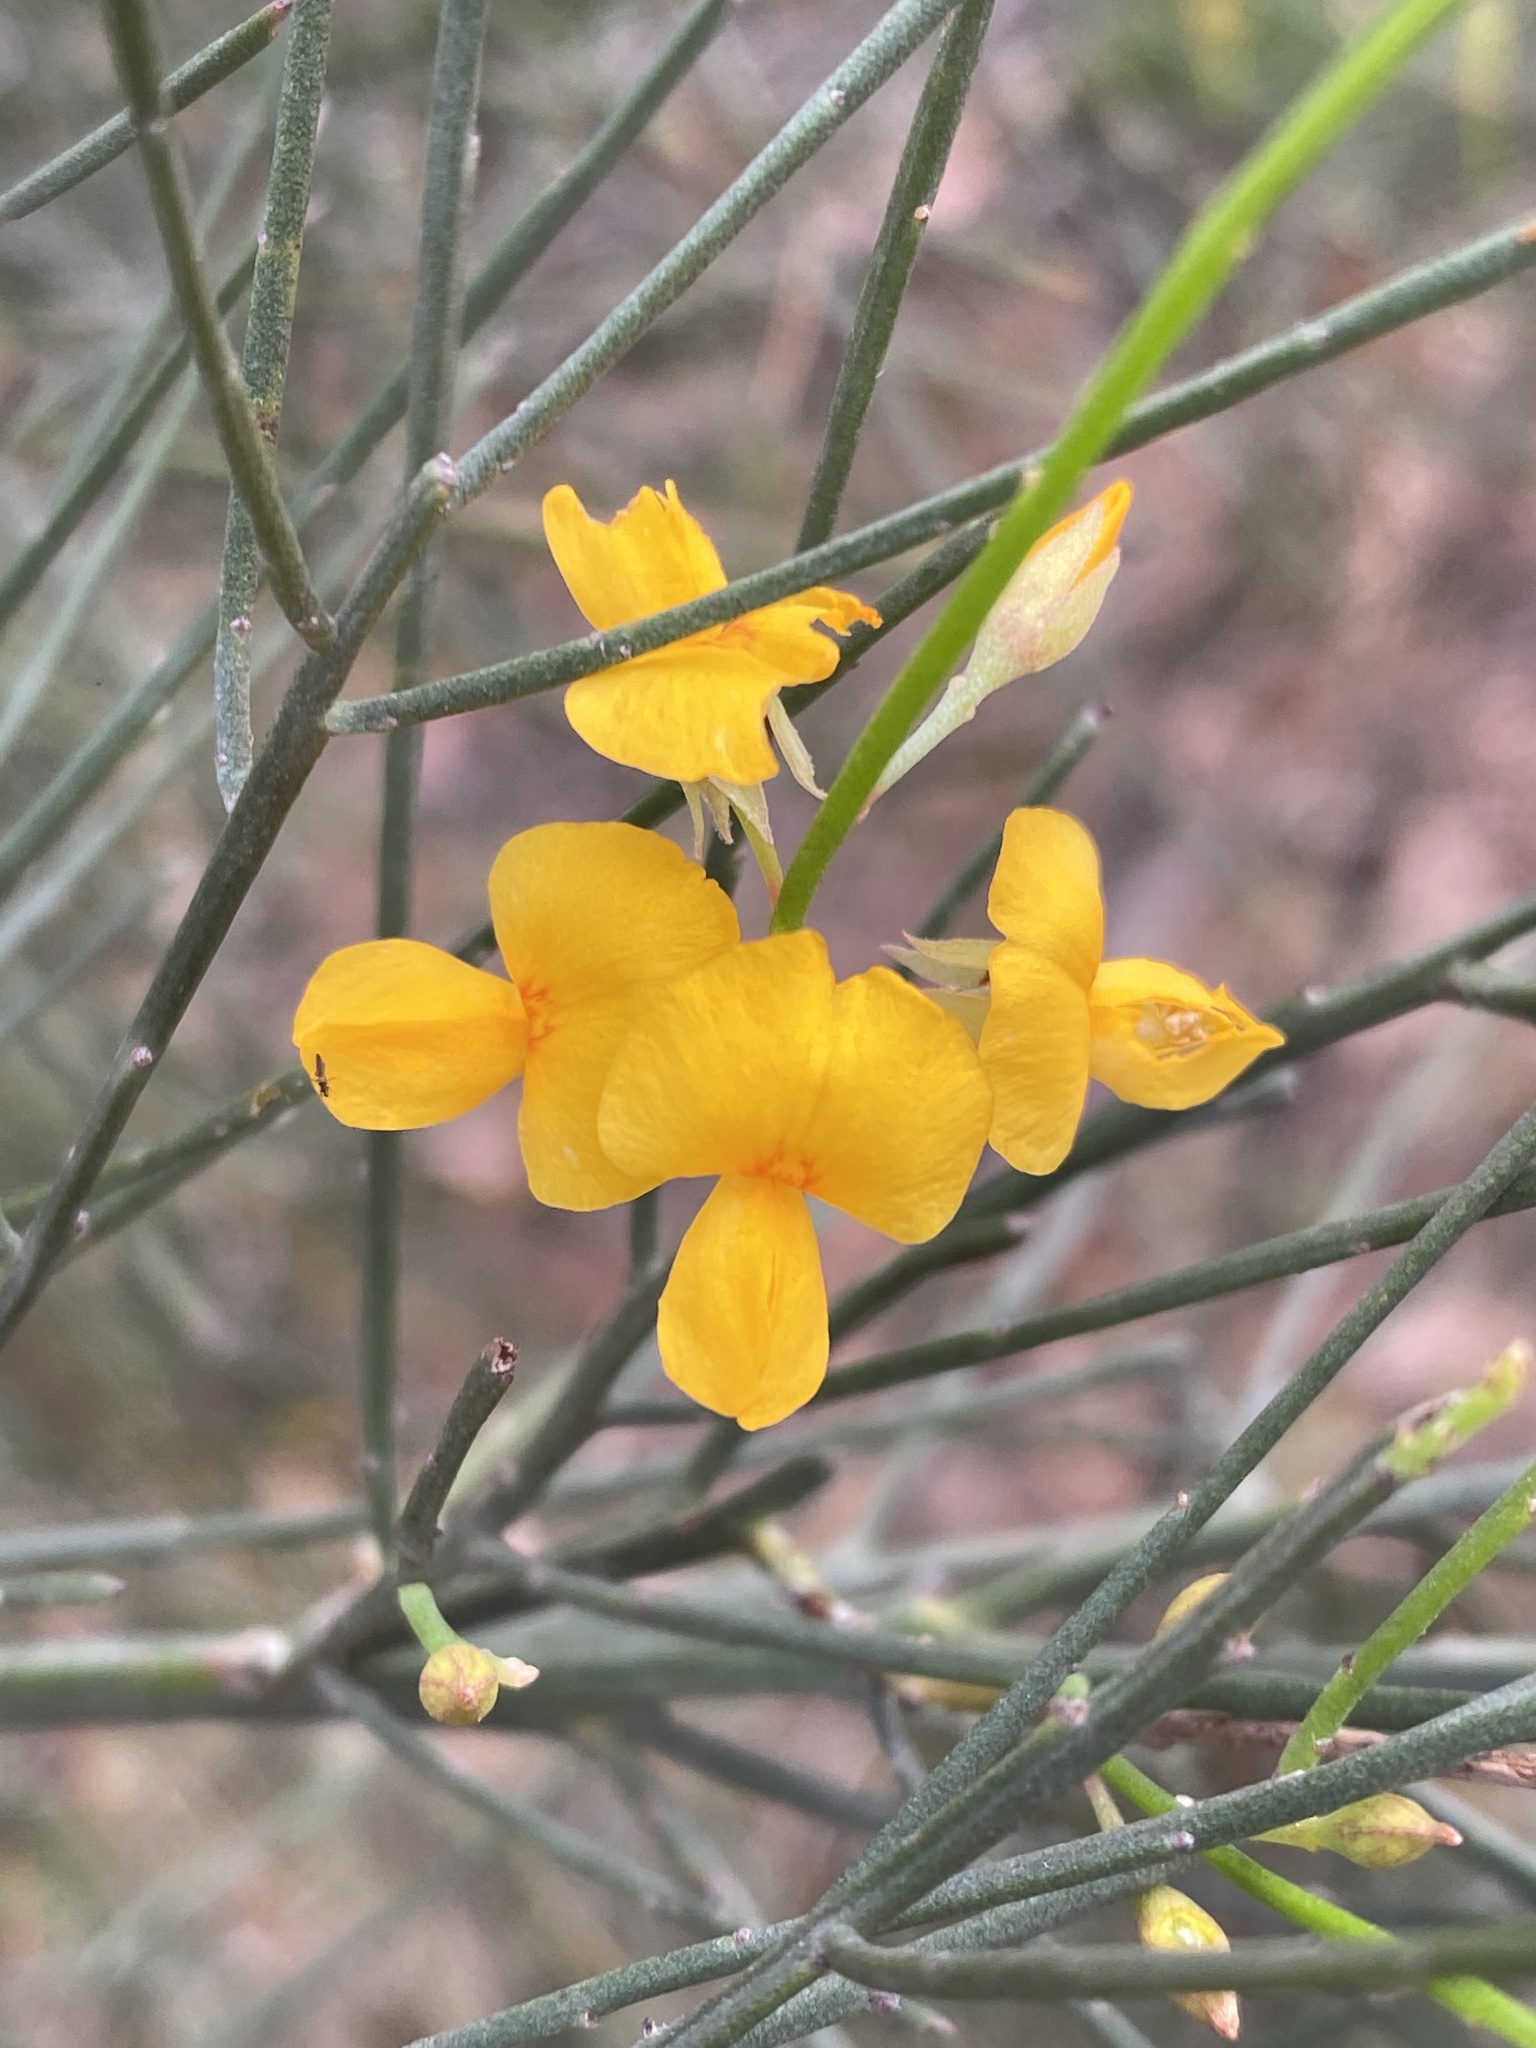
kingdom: Plantae
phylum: Tracheophyta
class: Magnoliopsida
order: Fabales
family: Fabaceae
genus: Jacksonia
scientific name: Jacksonia scoparia
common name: Dogwood
